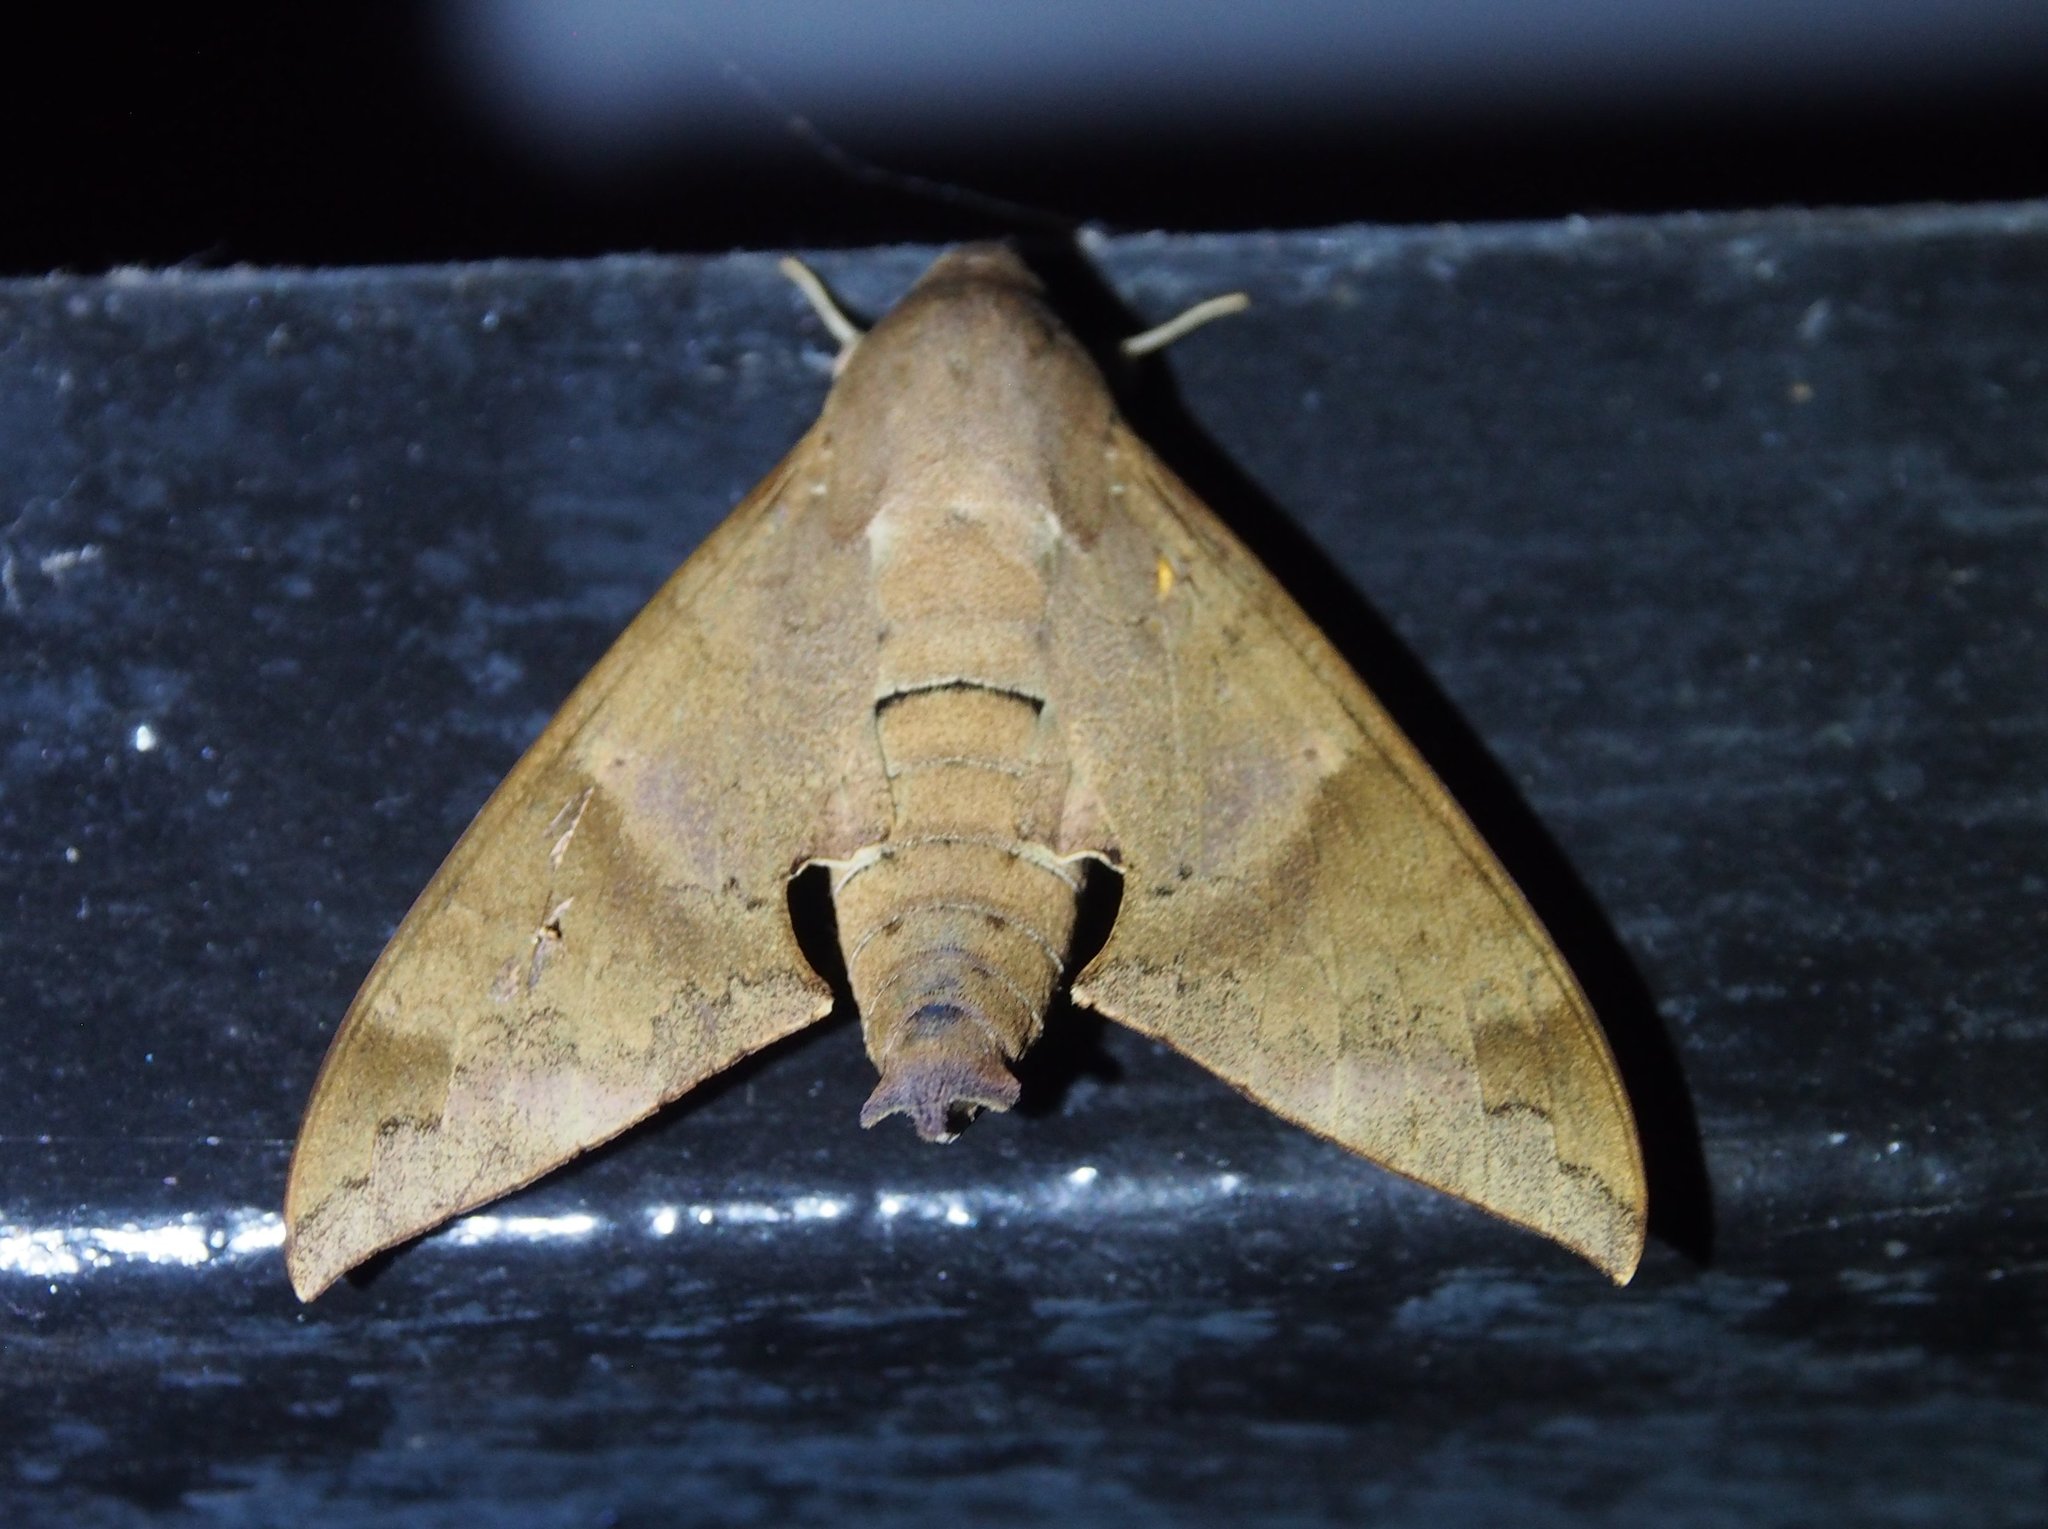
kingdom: Animalia
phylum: Arthropoda
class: Insecta
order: Lepidoptera
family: Sphingidae
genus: Pachylioides
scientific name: Pachylioides resumens
